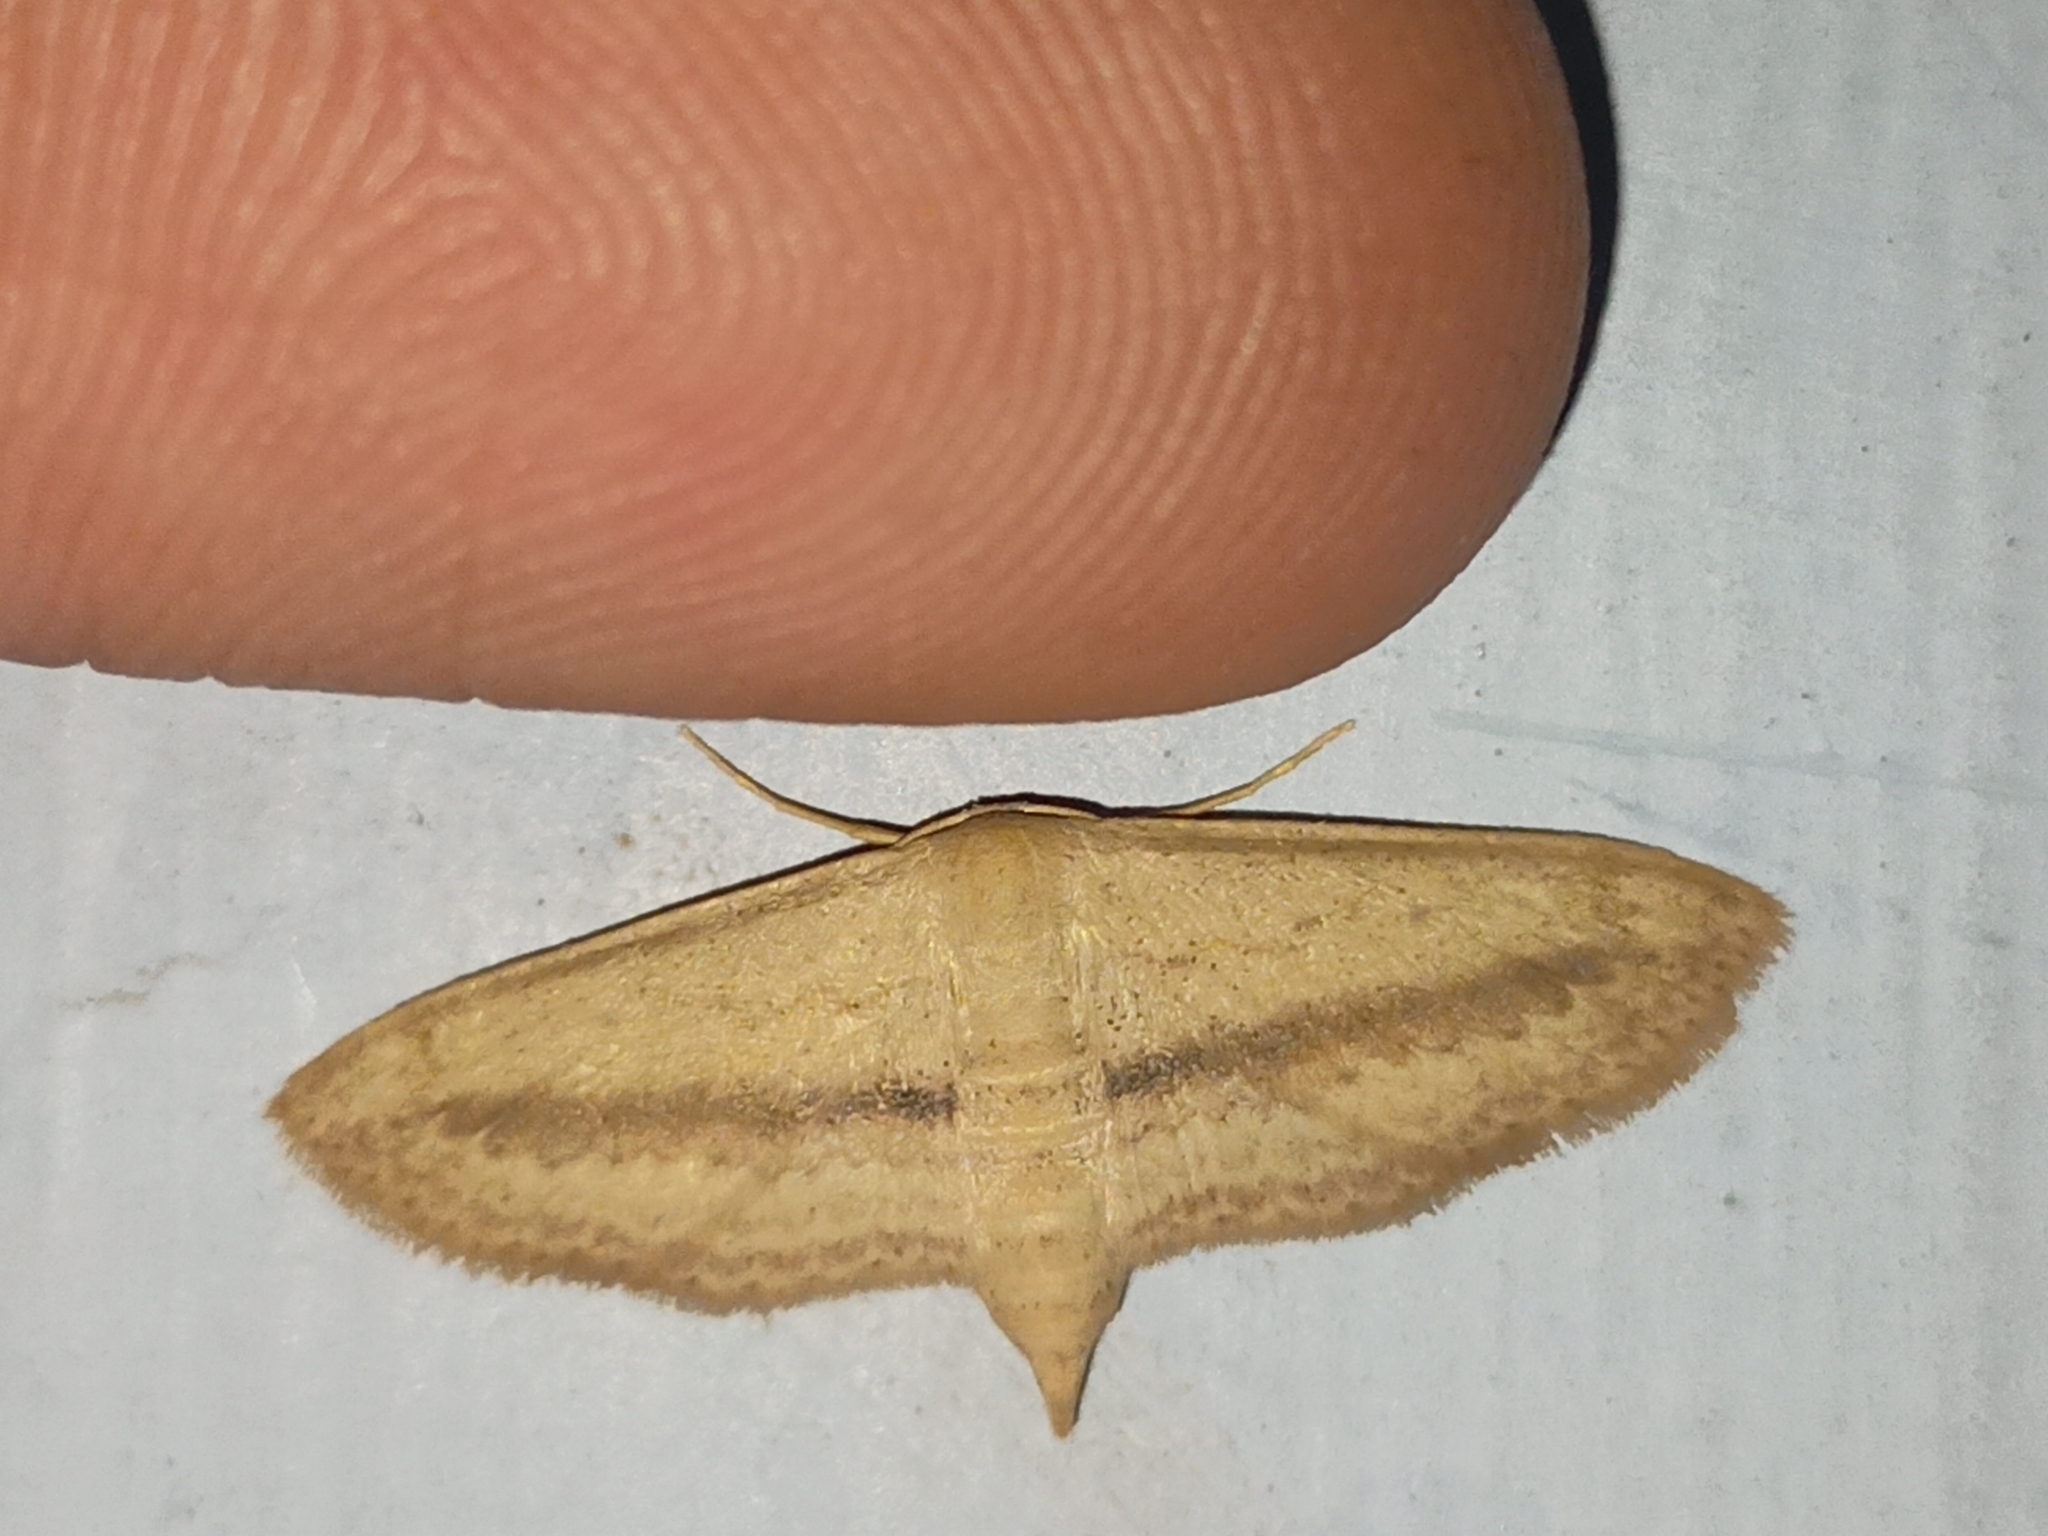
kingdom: Animalia
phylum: Arthropoda
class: Insecta
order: Lepidoptera
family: Geometridae
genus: Scopula
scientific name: Scopula emissaria
